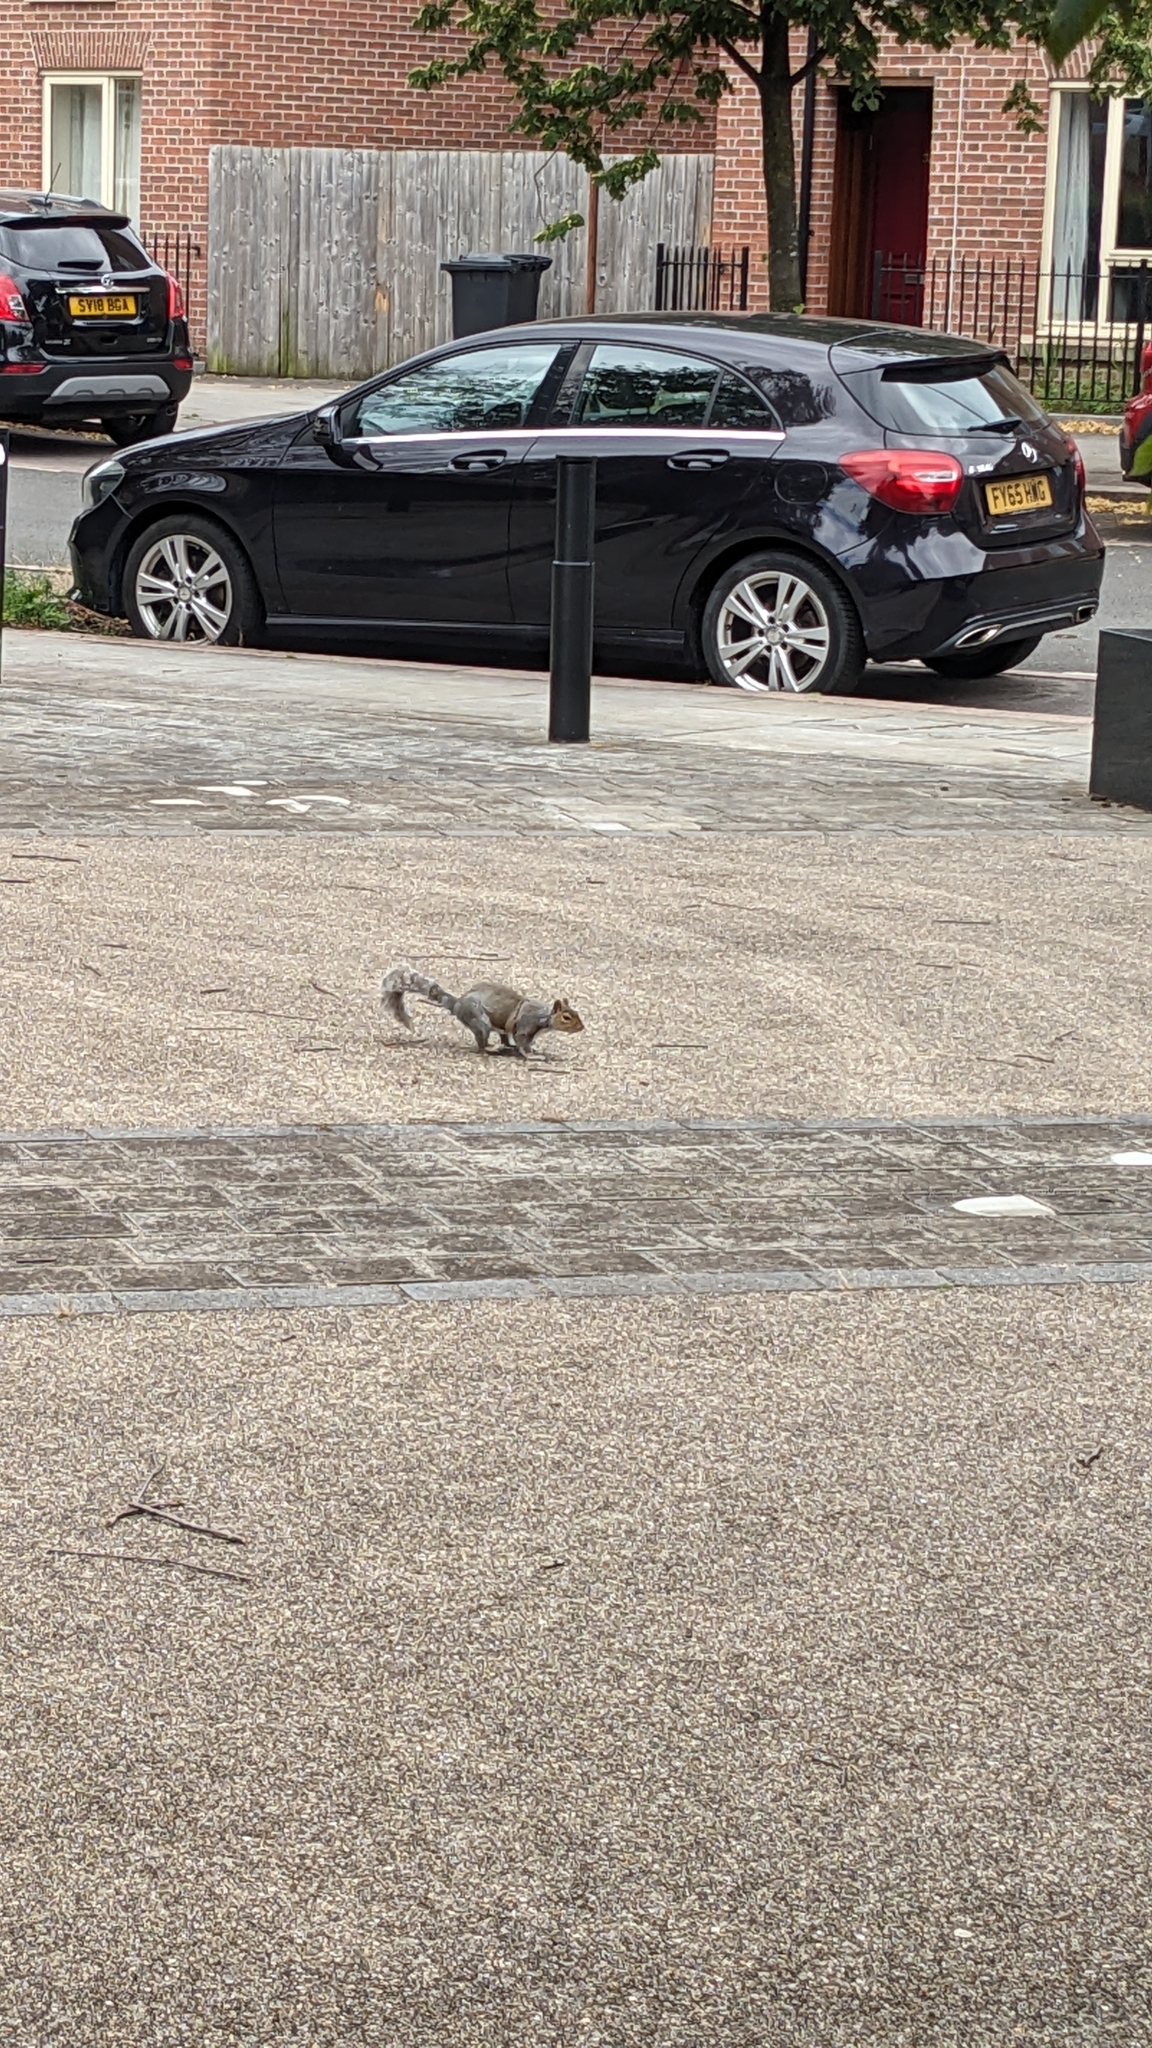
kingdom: Animalia
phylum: Chordata
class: Mammalia
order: Rodentia
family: Sciuridae
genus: Sciurus
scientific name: Sciurus carolinensis
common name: Eastern gray squirrel
